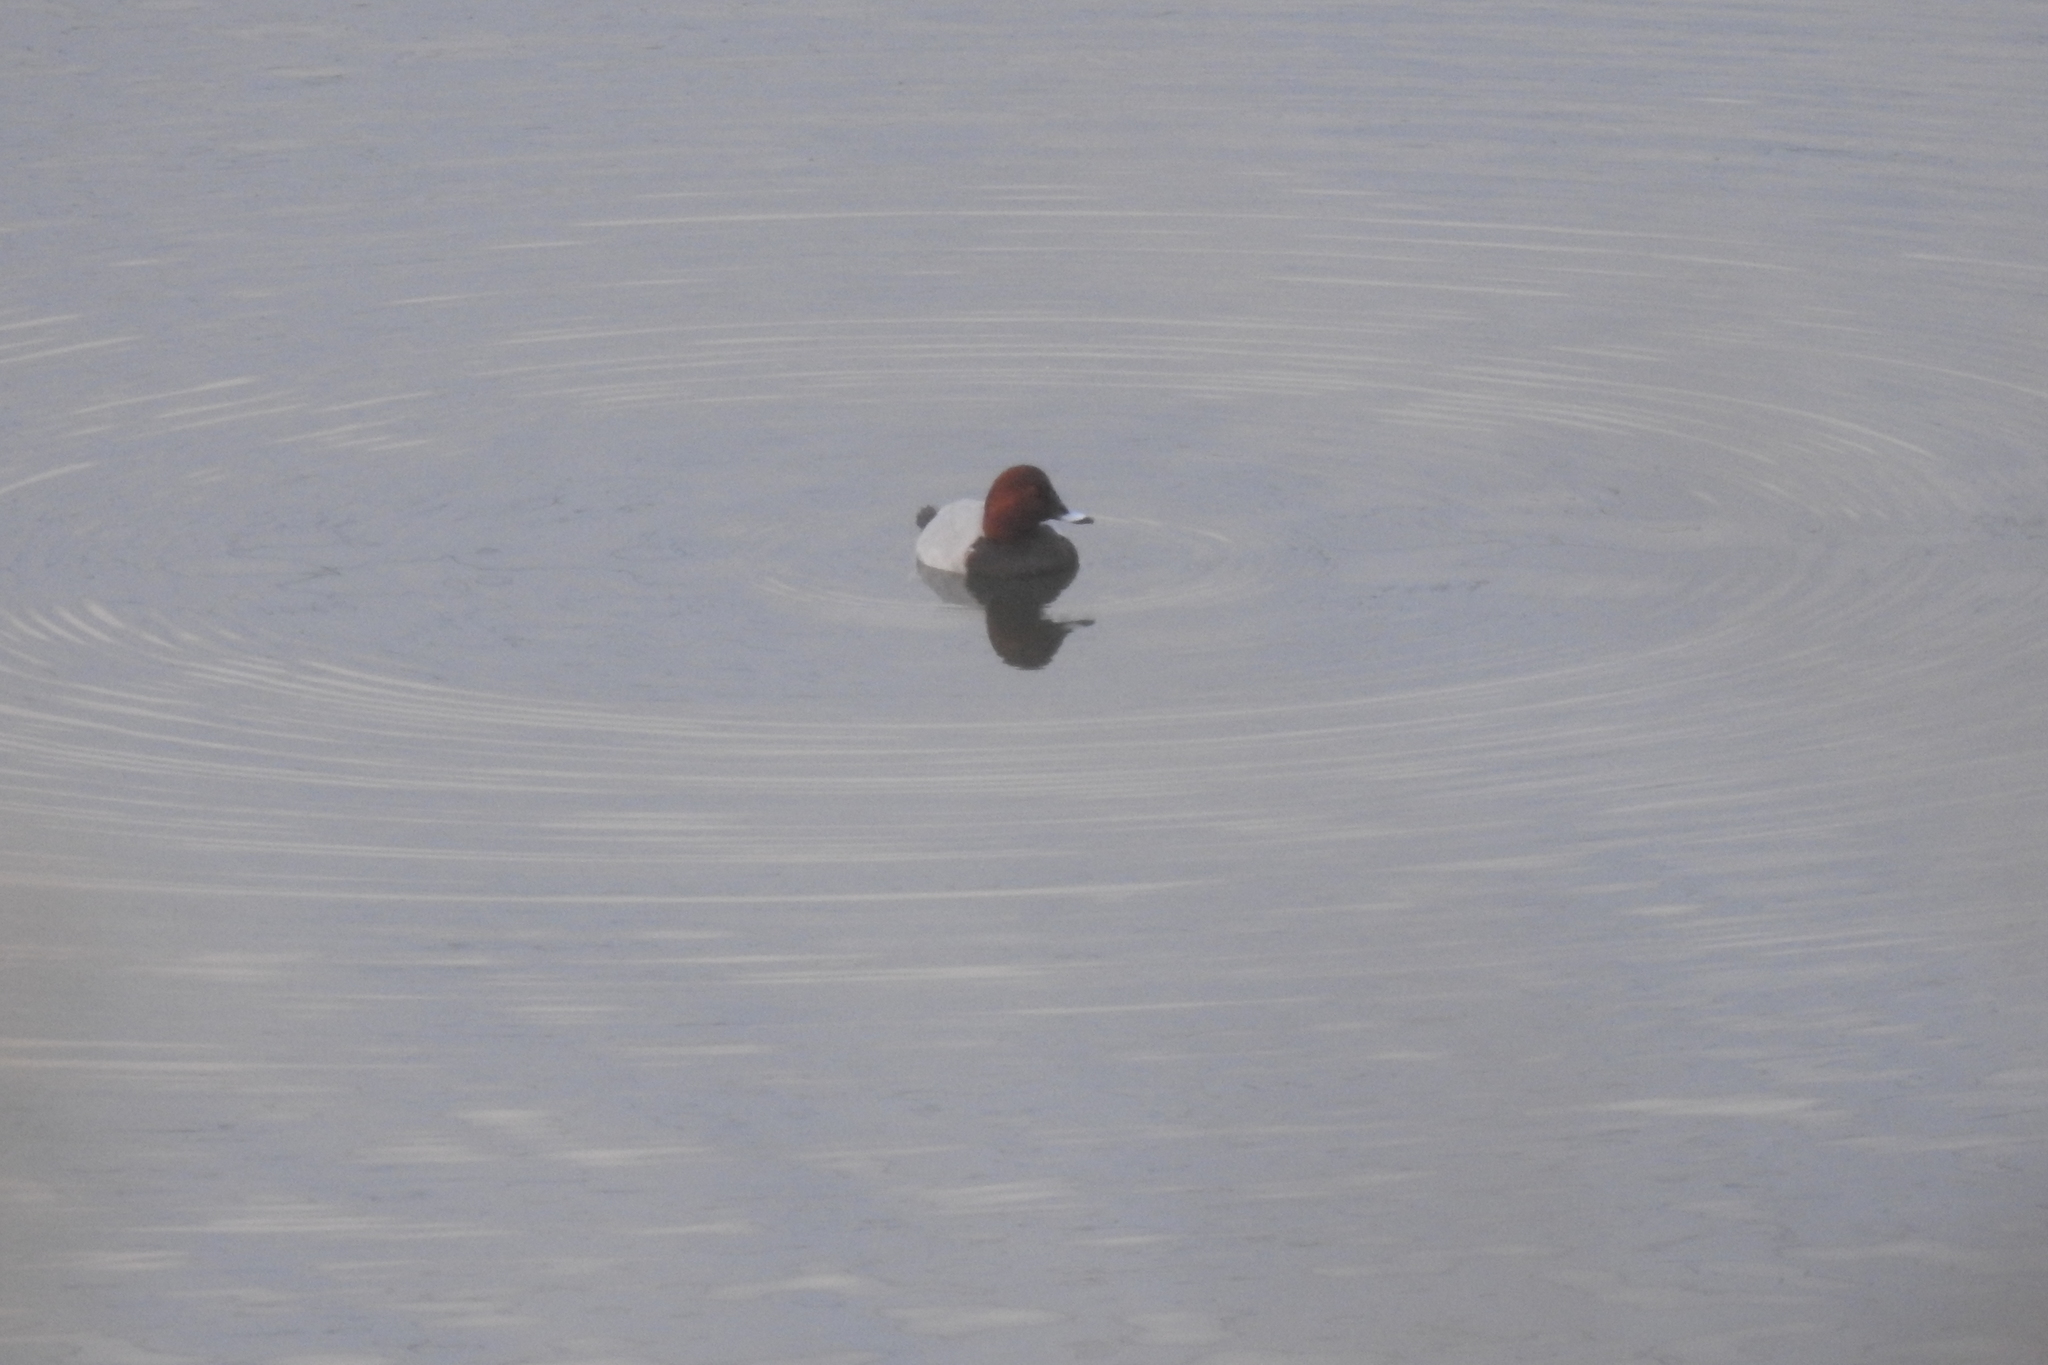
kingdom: Animalia
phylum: Chordata
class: Aves
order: Anseriformes
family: Anatidae
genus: Aythya
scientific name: Aythya ferina
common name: Common pochard
